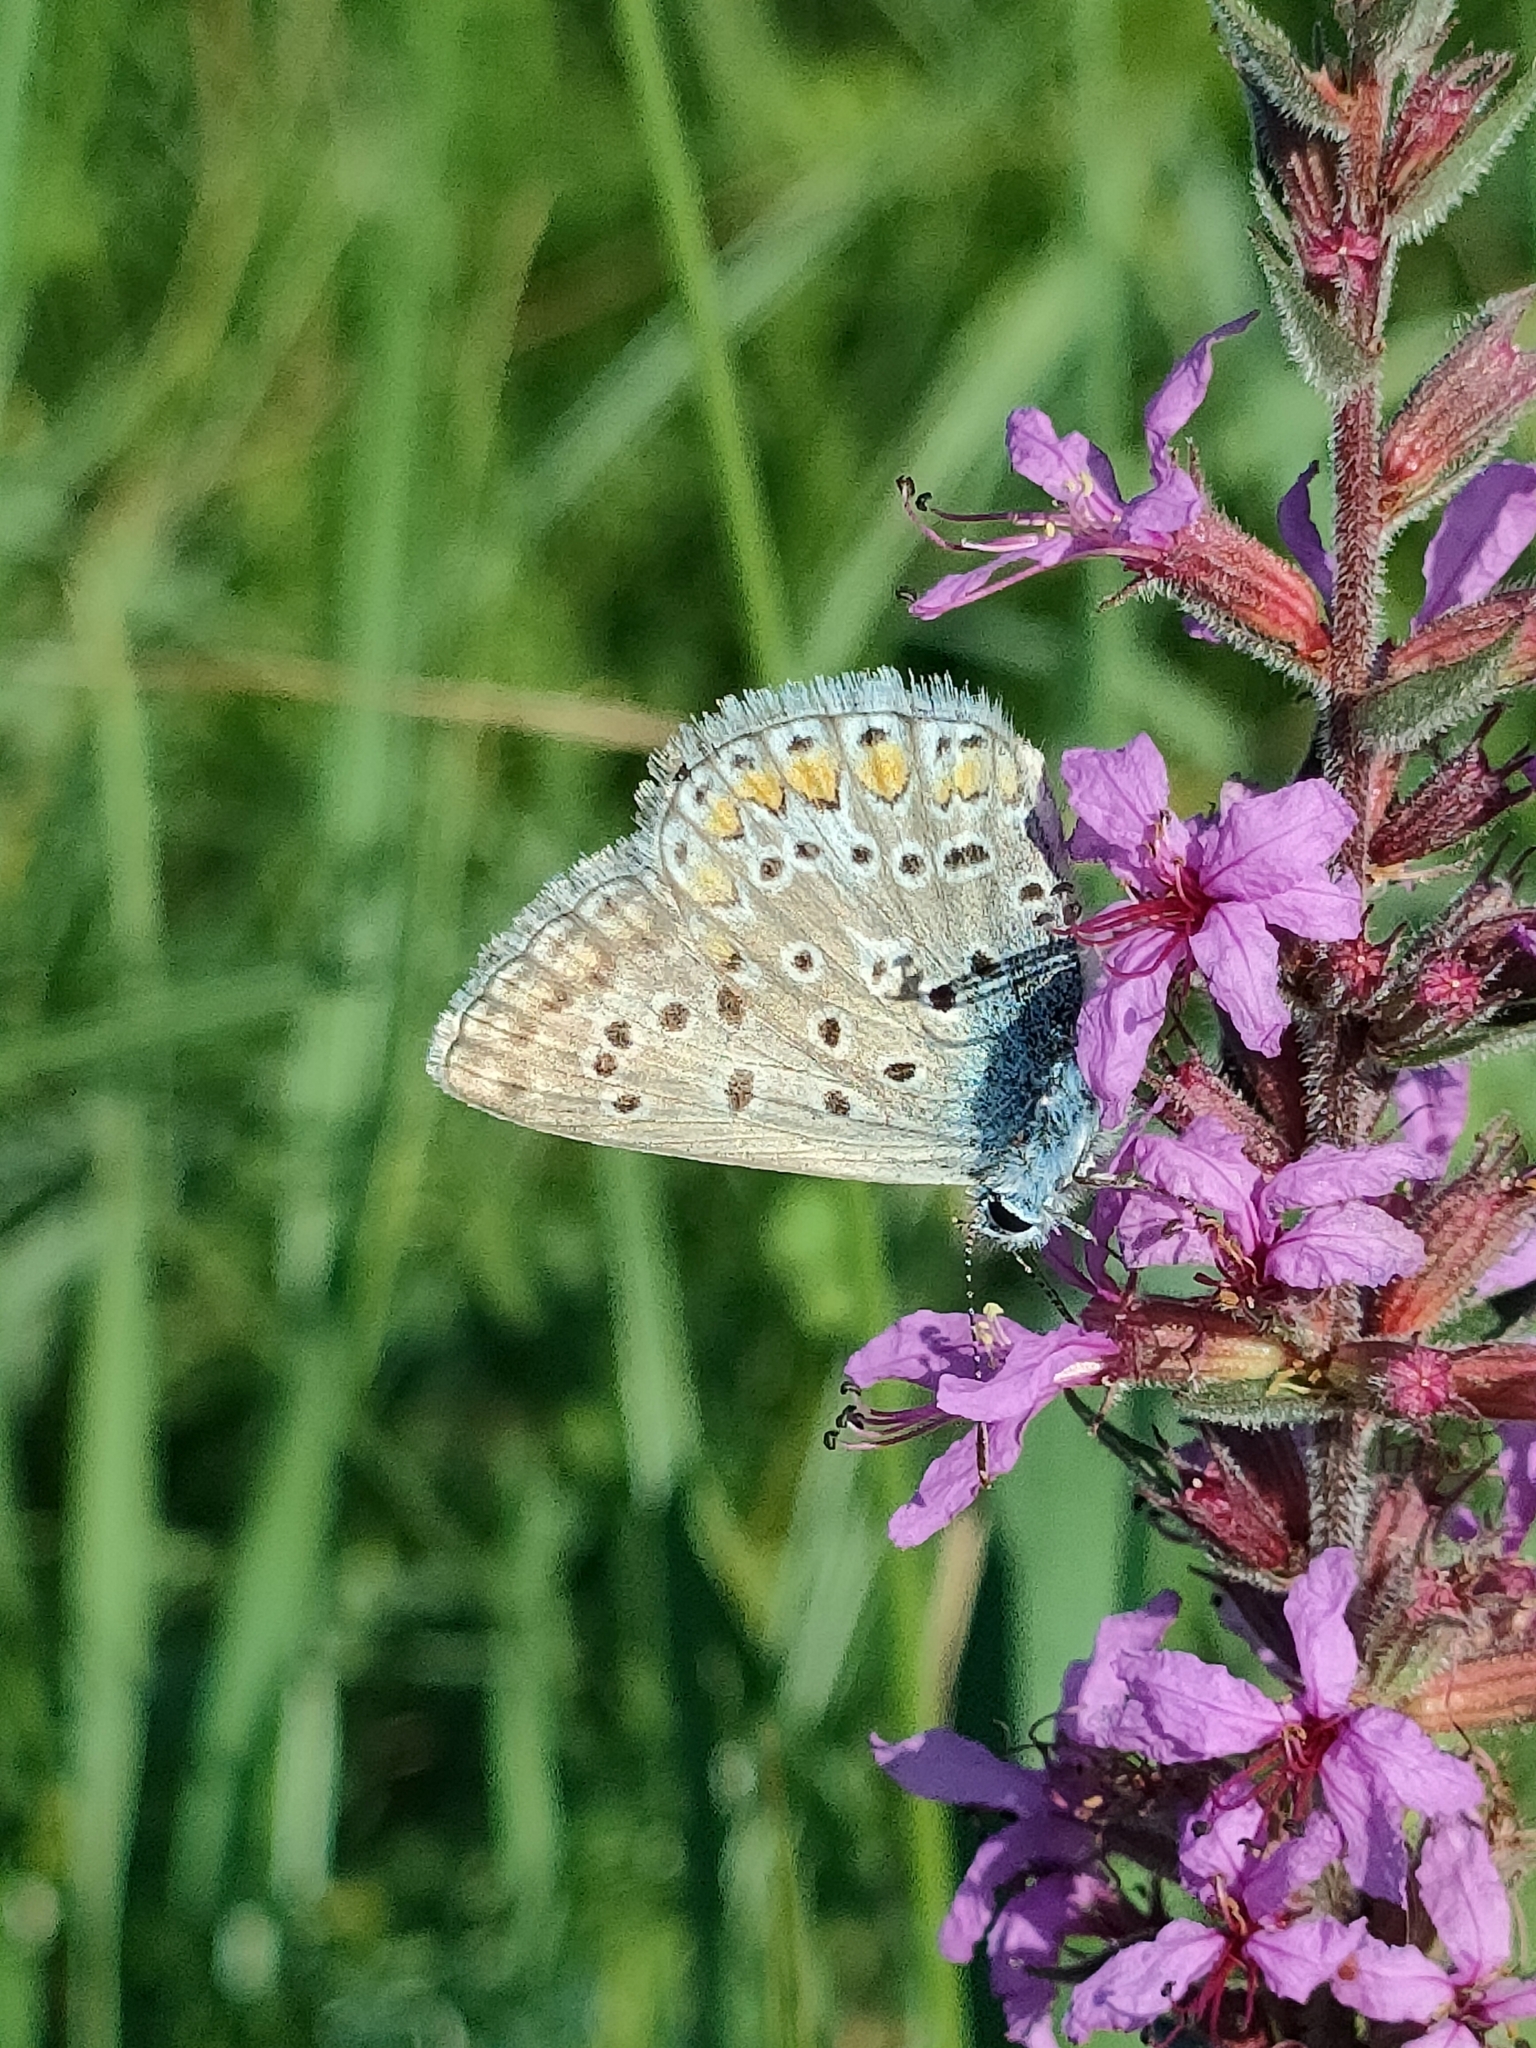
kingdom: Animalia
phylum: Arthropoda
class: Insecta
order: Lepidoptera
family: Lycaenidae
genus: Polyommatus
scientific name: Polyommatus icarus
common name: Common blue
